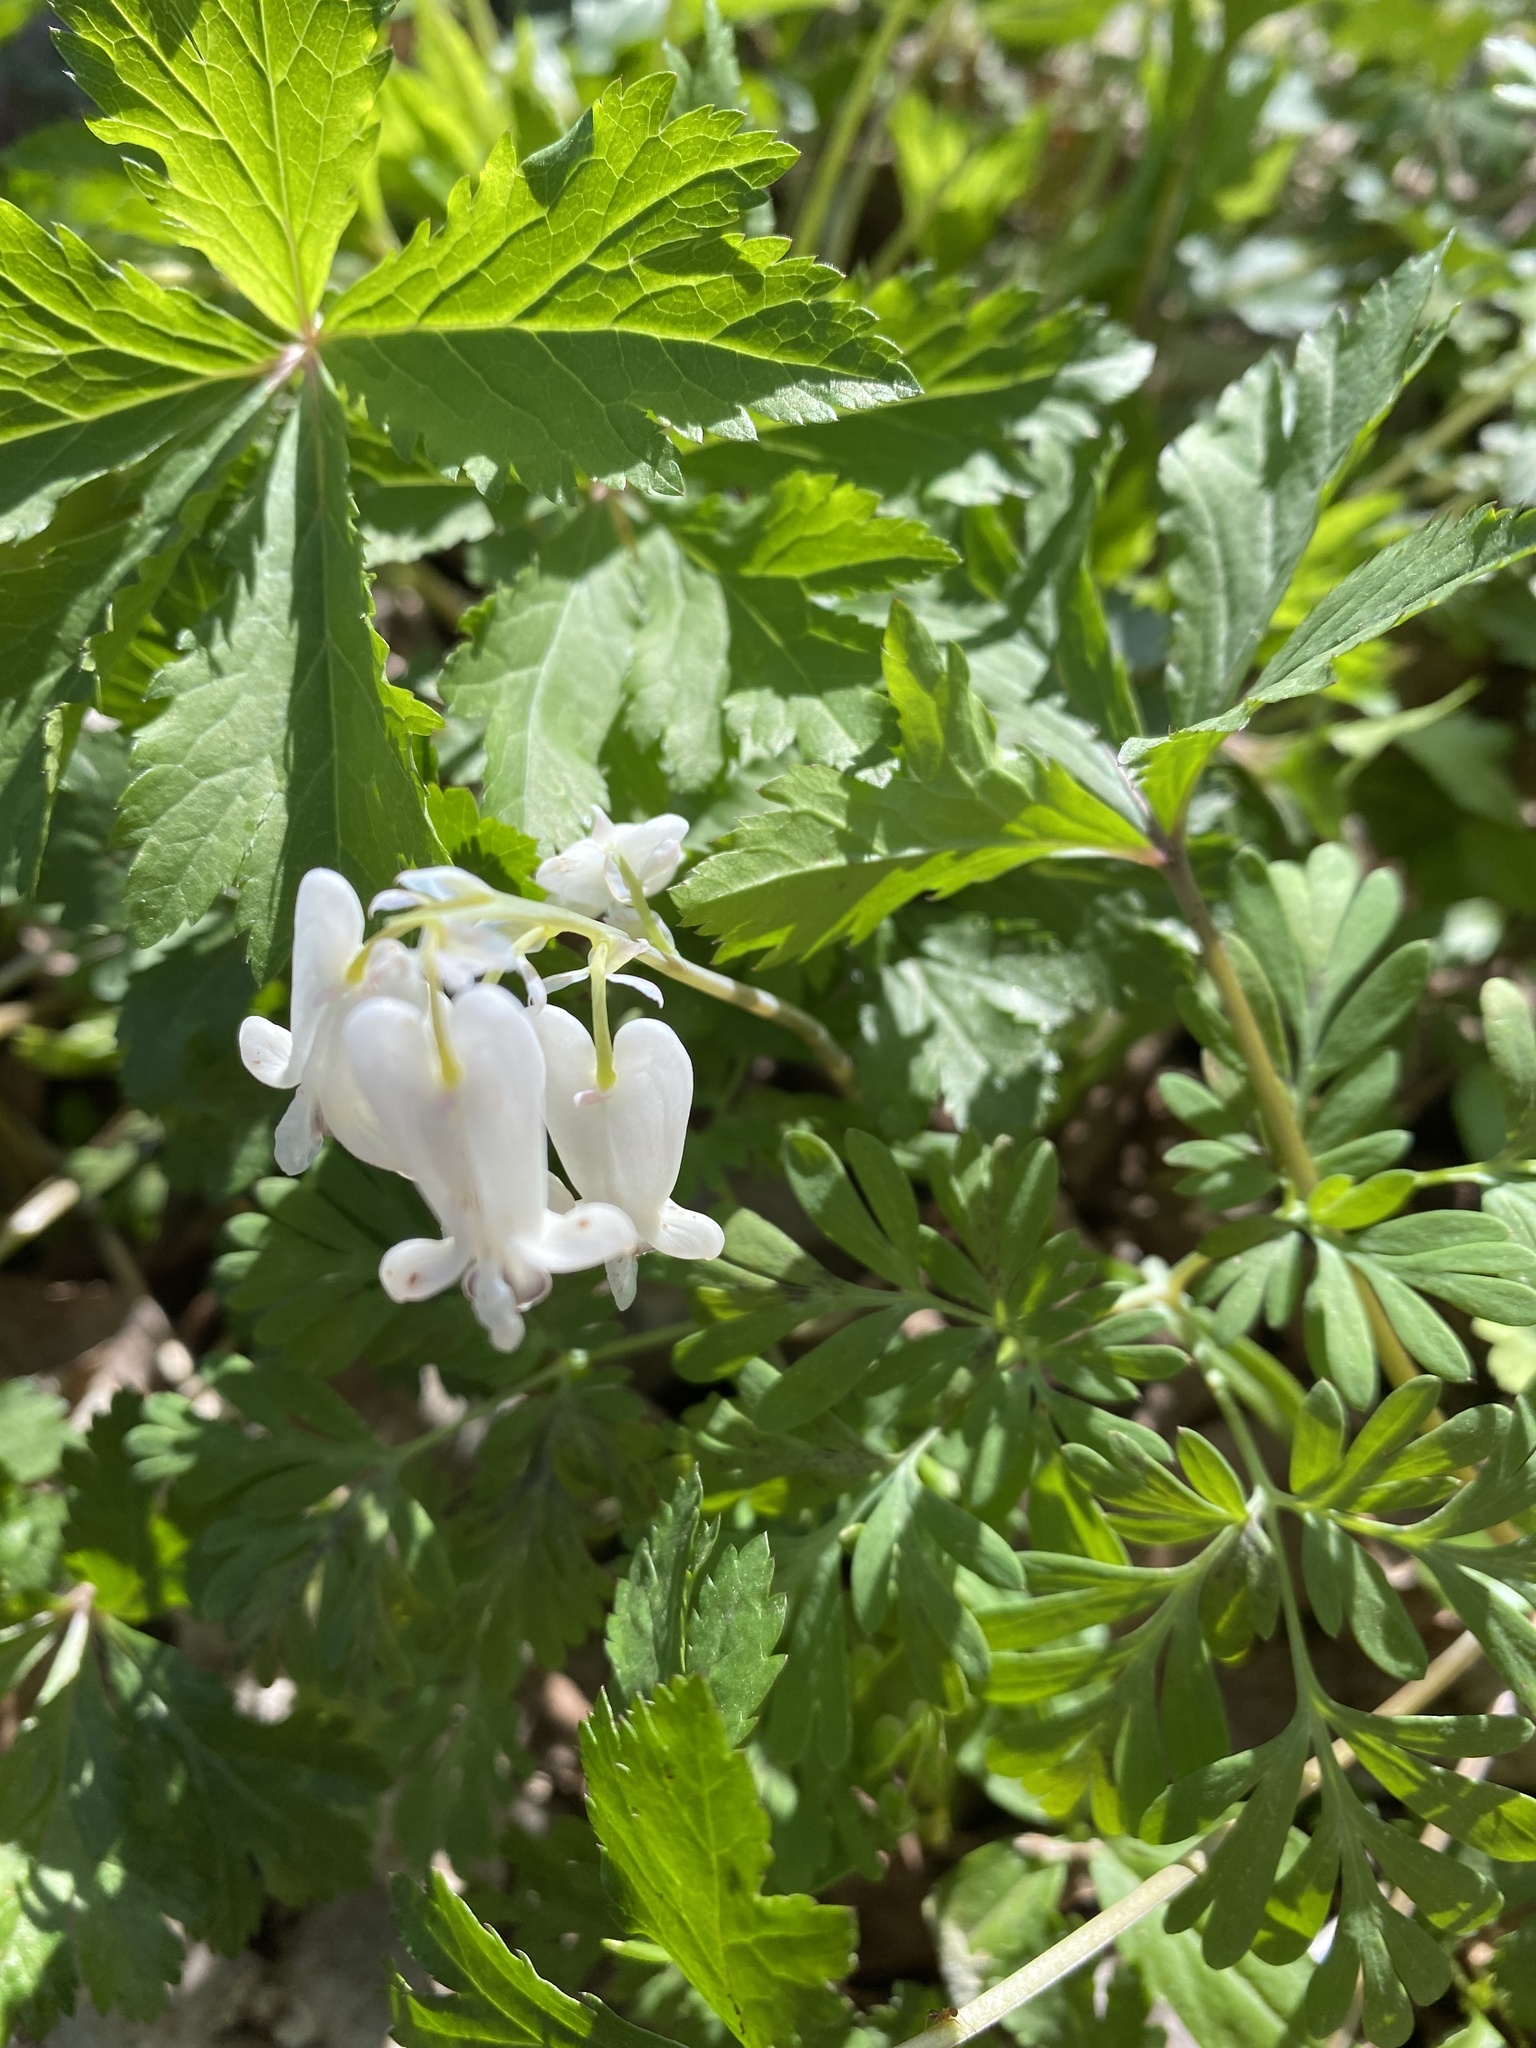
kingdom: Plantae
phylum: Tracheophyta
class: Magnoliopsida
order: Ranunculales
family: Papaveraceae
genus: Dicentra
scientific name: Dicentra canadensis
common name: Squirrel-corn
